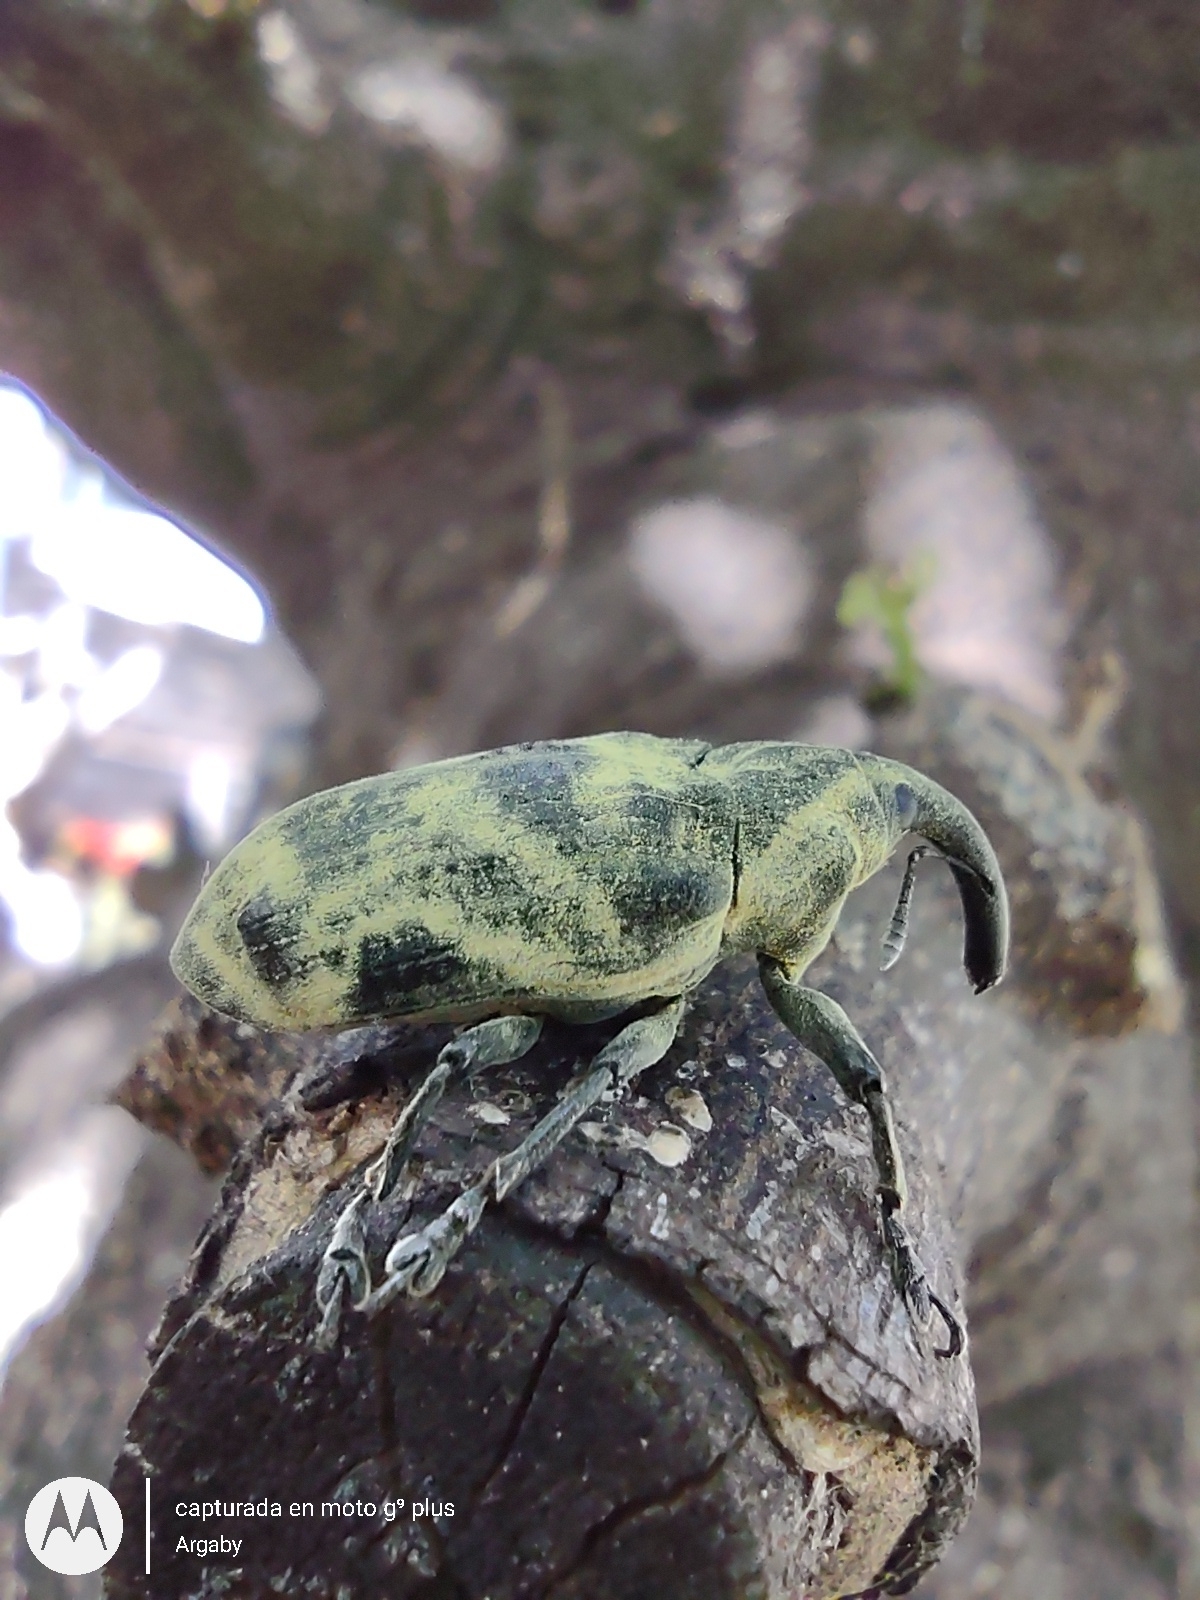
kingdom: Animalia
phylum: Arthropoda
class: Insecta
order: Coleoptera
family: Curculionidae
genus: Ileomus
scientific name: Ileomus mucoreus
